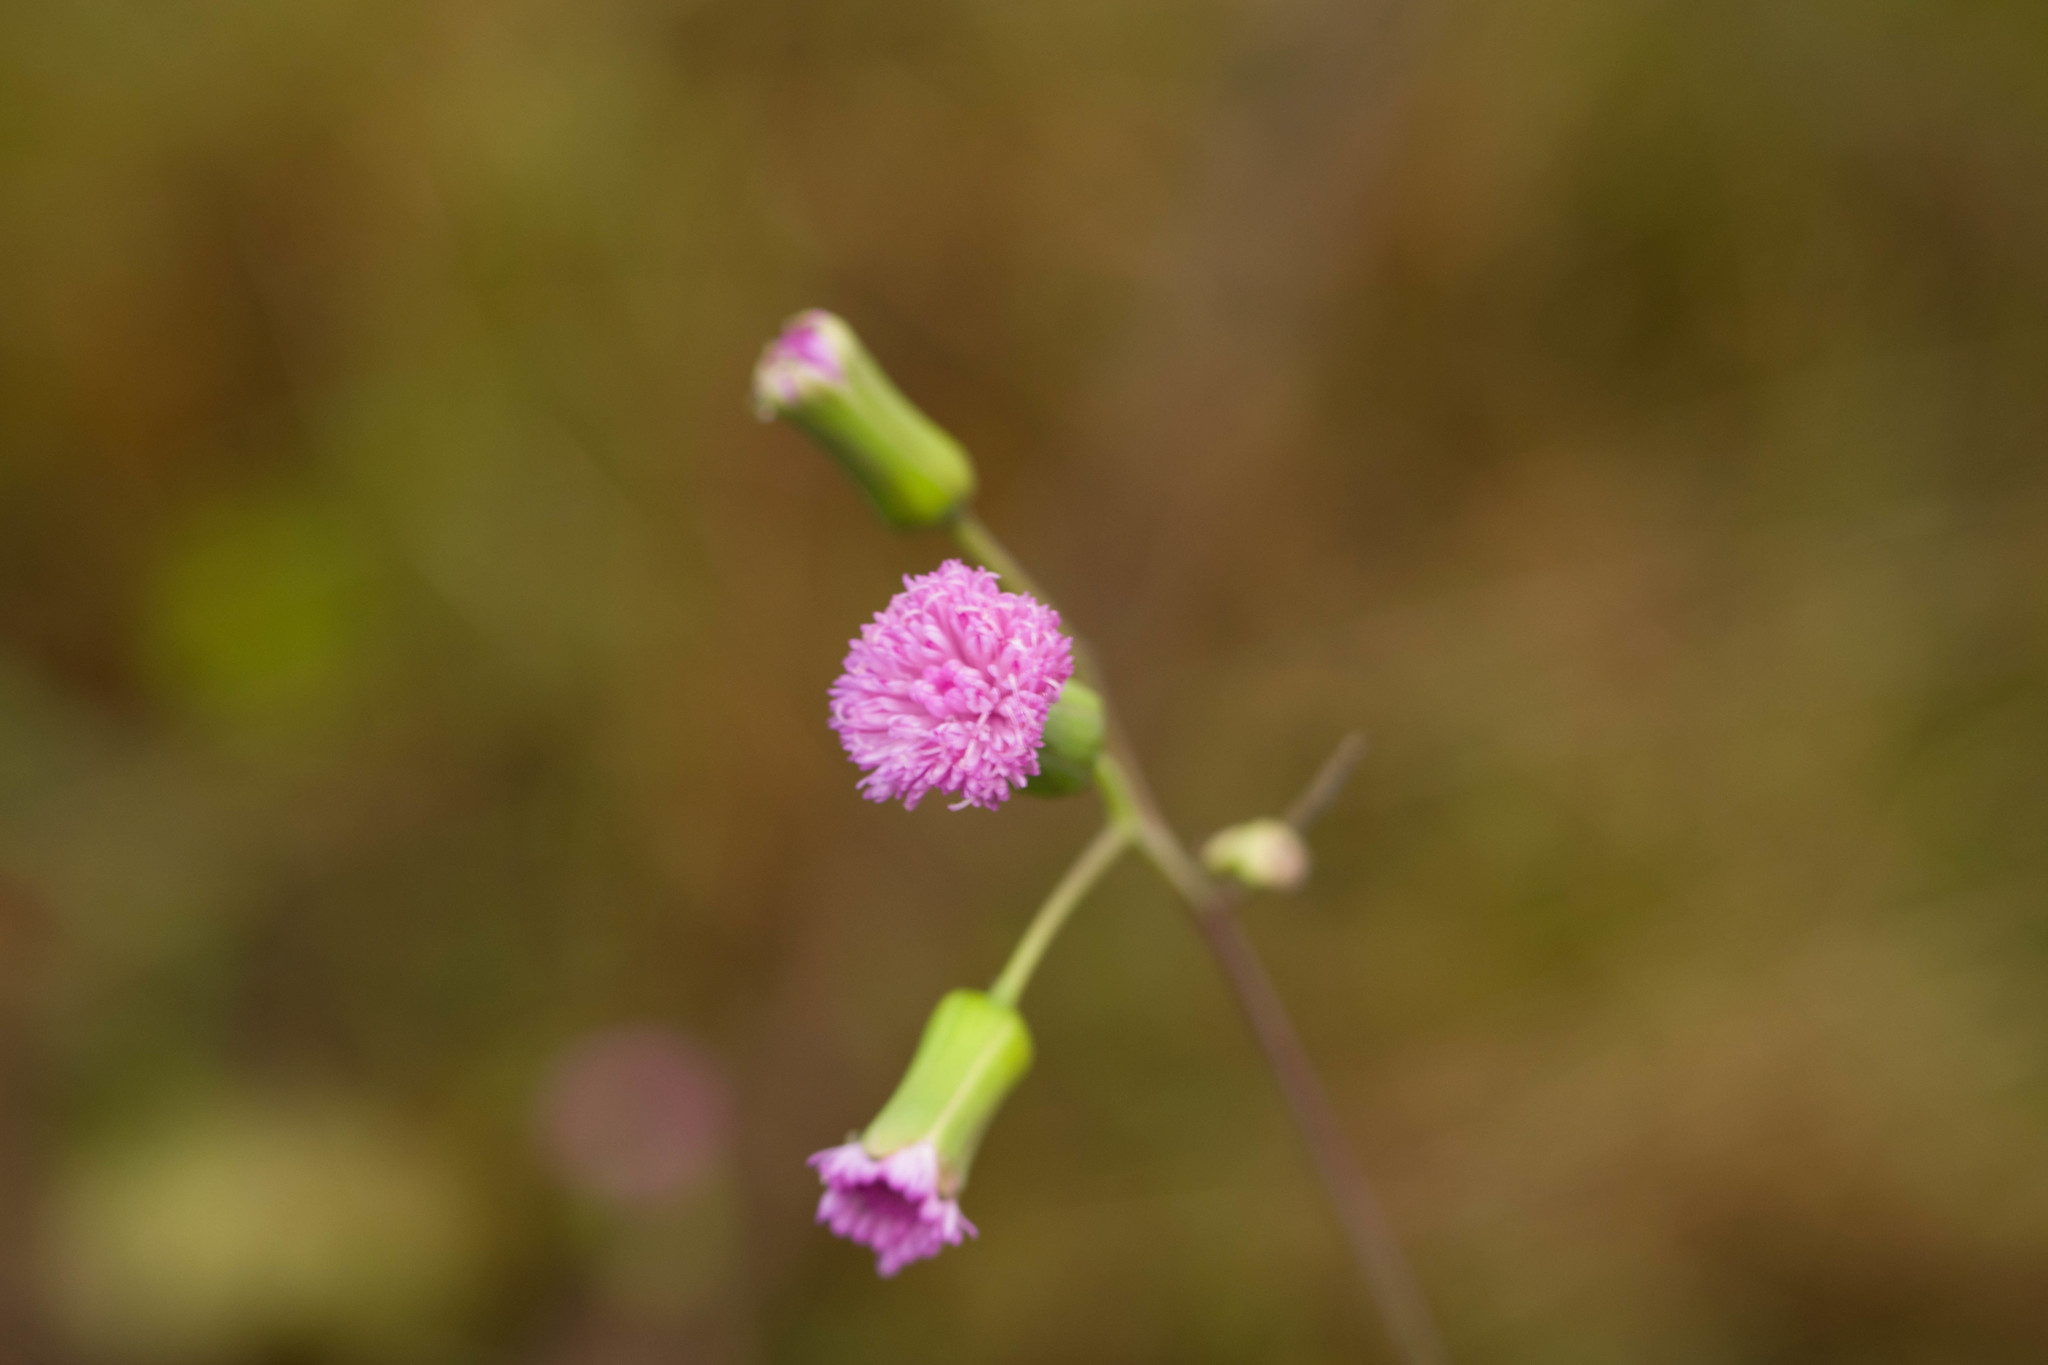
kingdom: Plantae
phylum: Tracheophyta
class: Magnoliopsida
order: Asterales
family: Asteraceae
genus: Emilia
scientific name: Emilia sonchifolia
